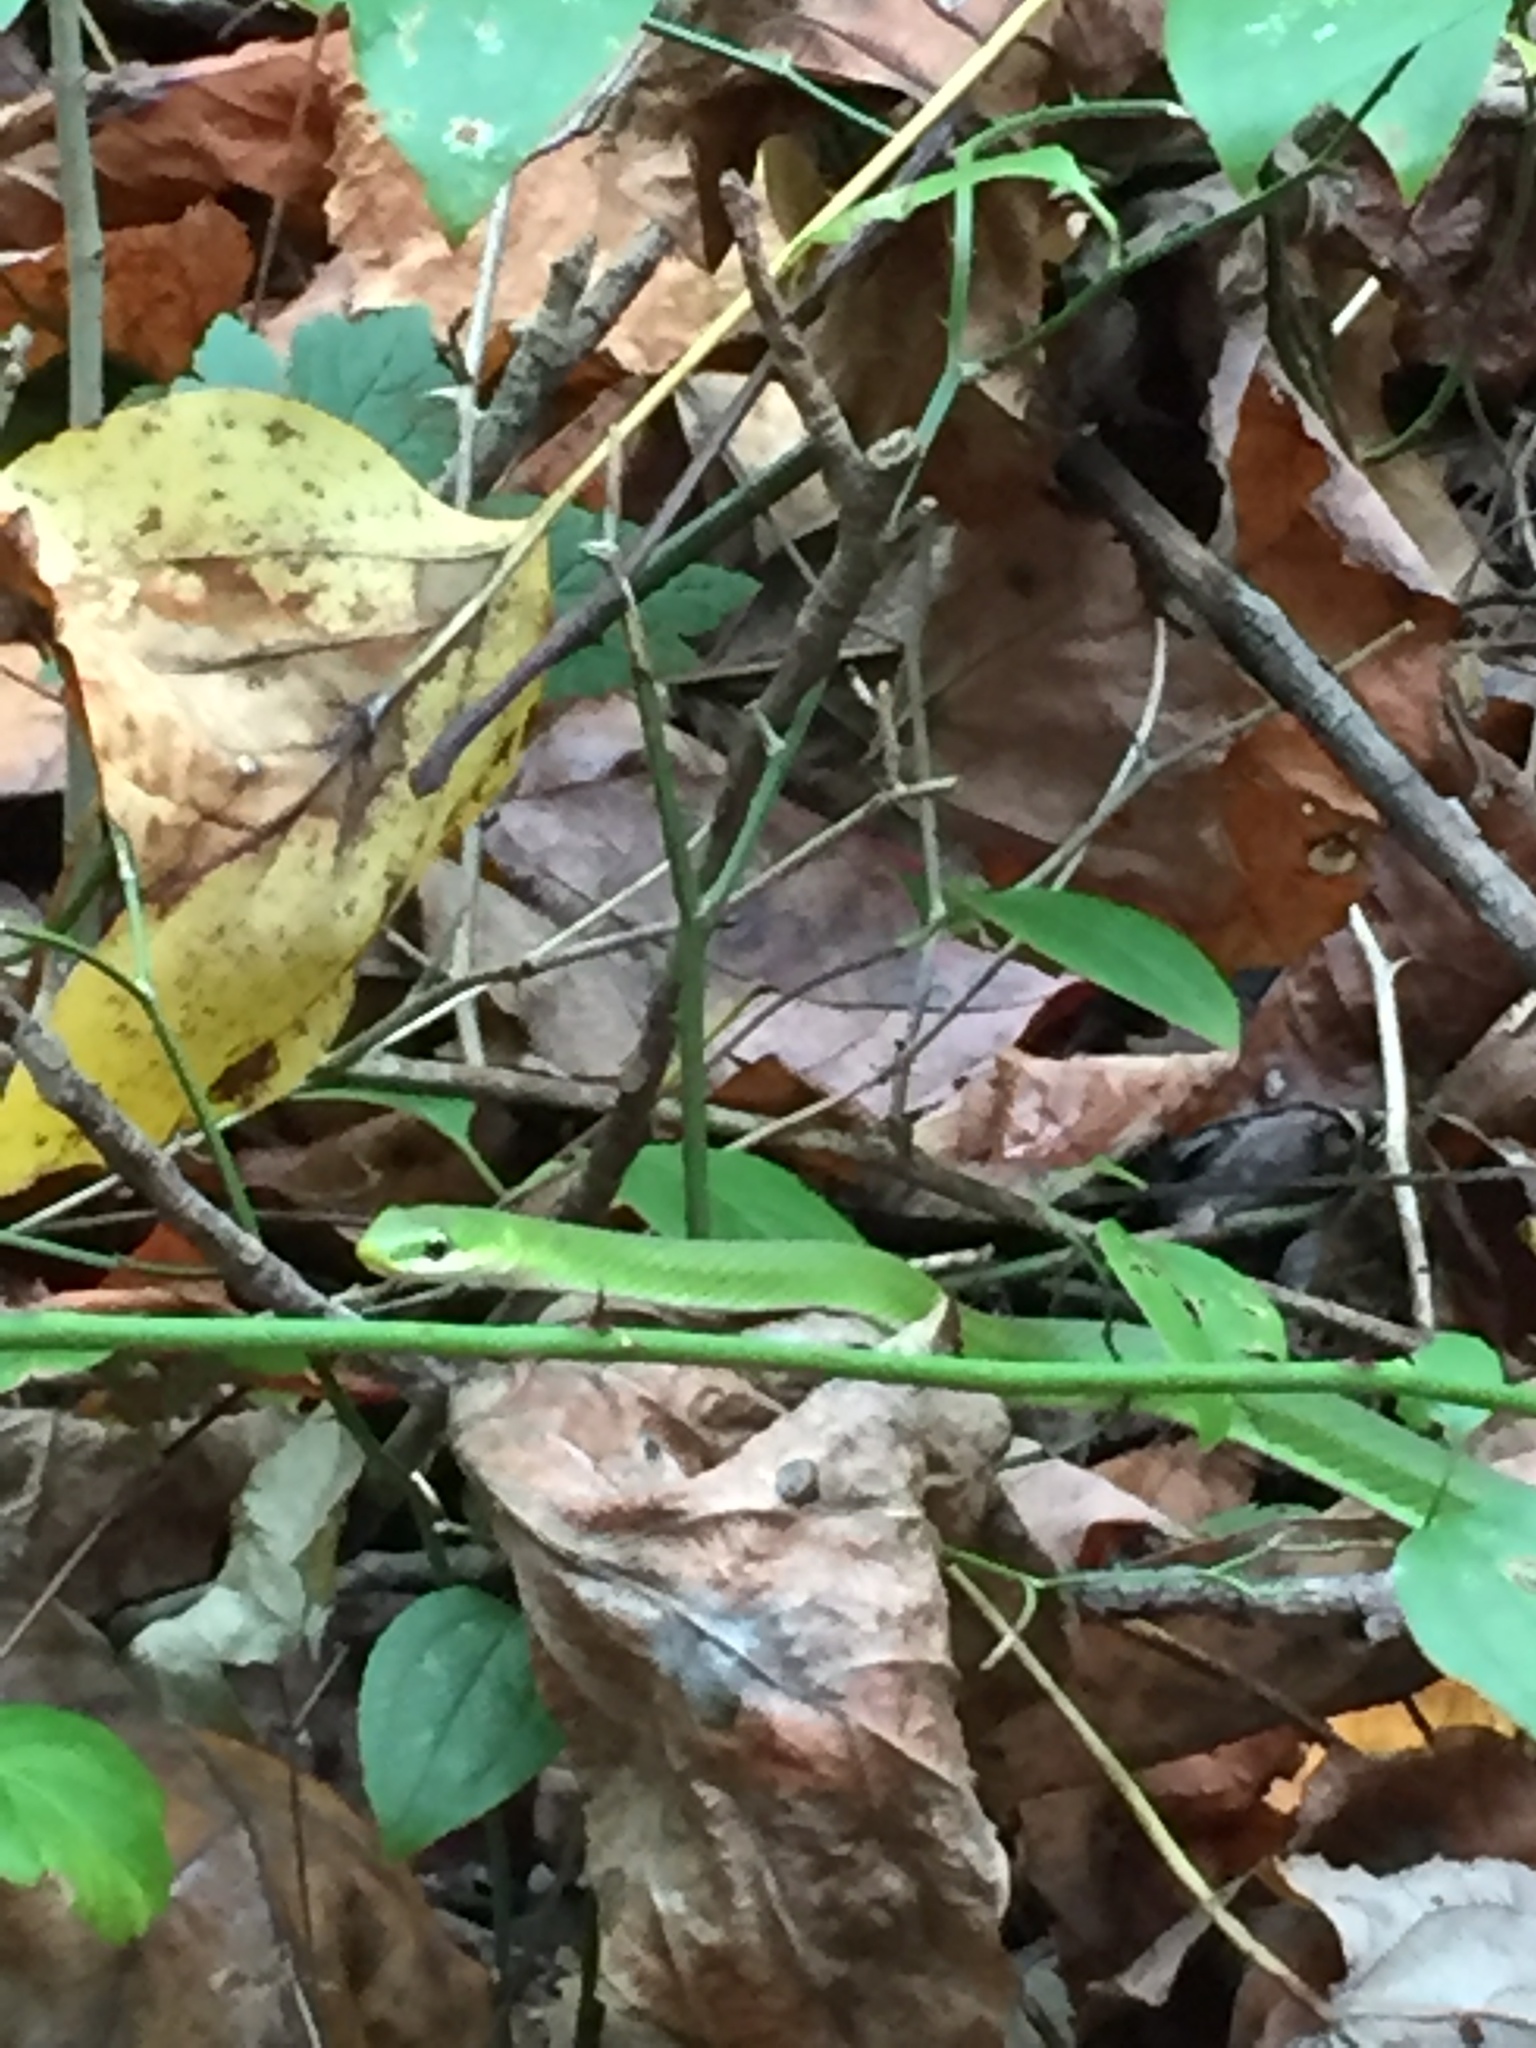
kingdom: Animalia
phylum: Chordata
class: Squamata
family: Colubridae
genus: Opheodrys
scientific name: Opheodrys aestivus
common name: Rough greensnake
